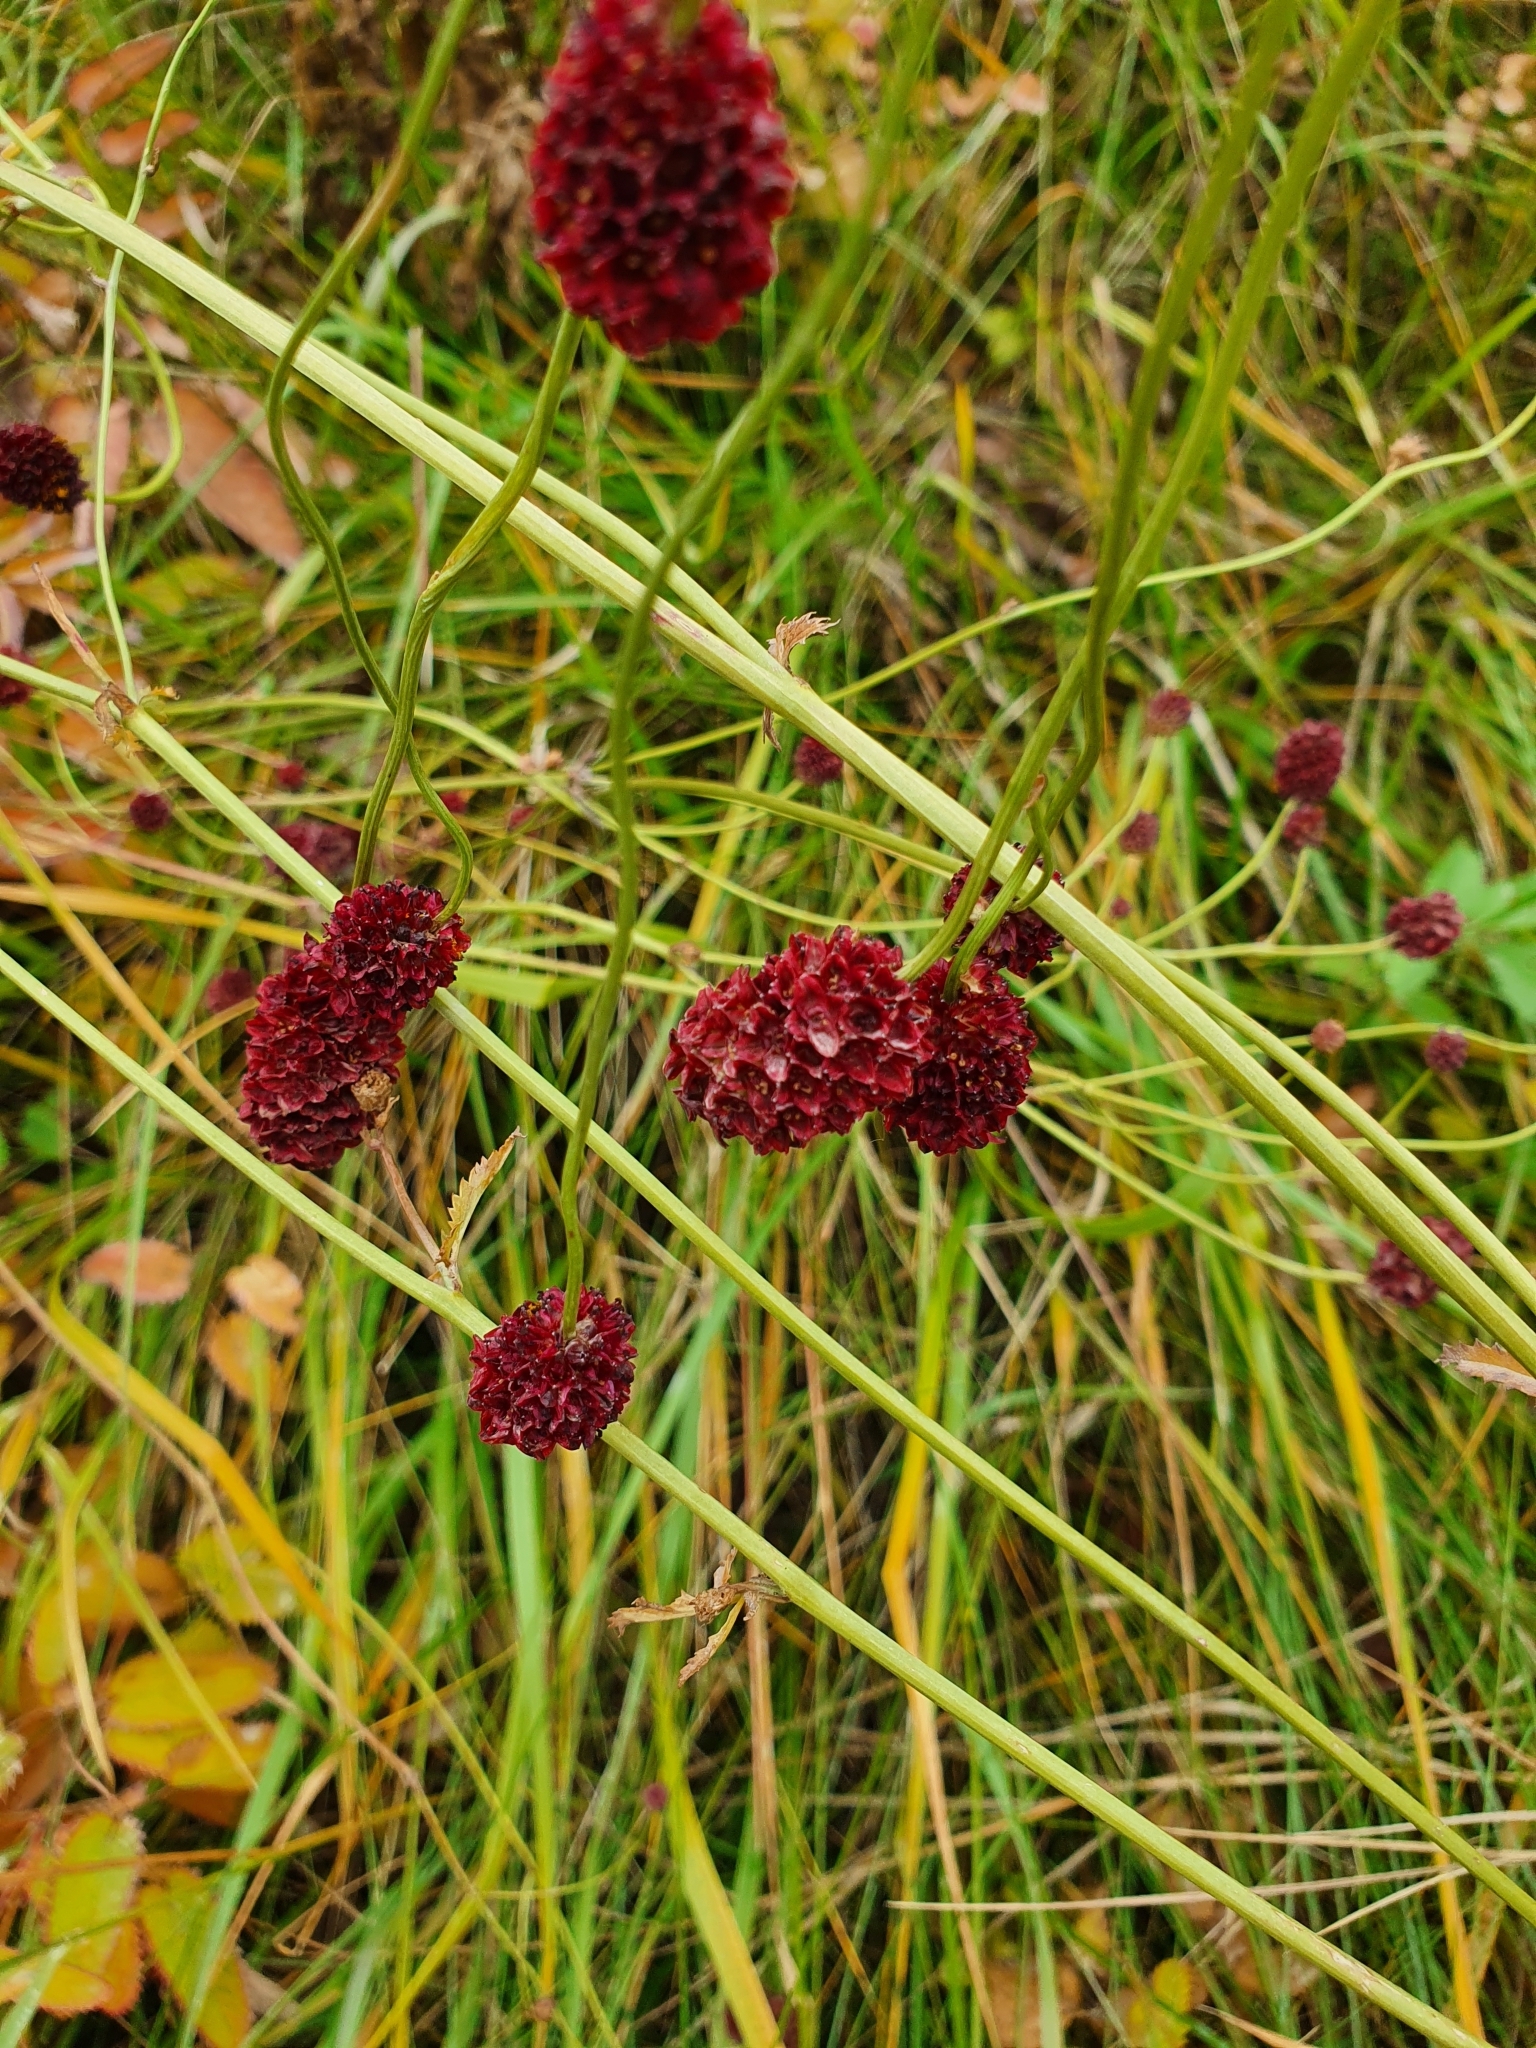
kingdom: Plantae
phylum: Tracheophyta
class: Magnoliopsida
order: Rosales
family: Rosaceae
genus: Sanguisorba
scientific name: Sanguisorba officinalis
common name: Great burnet
